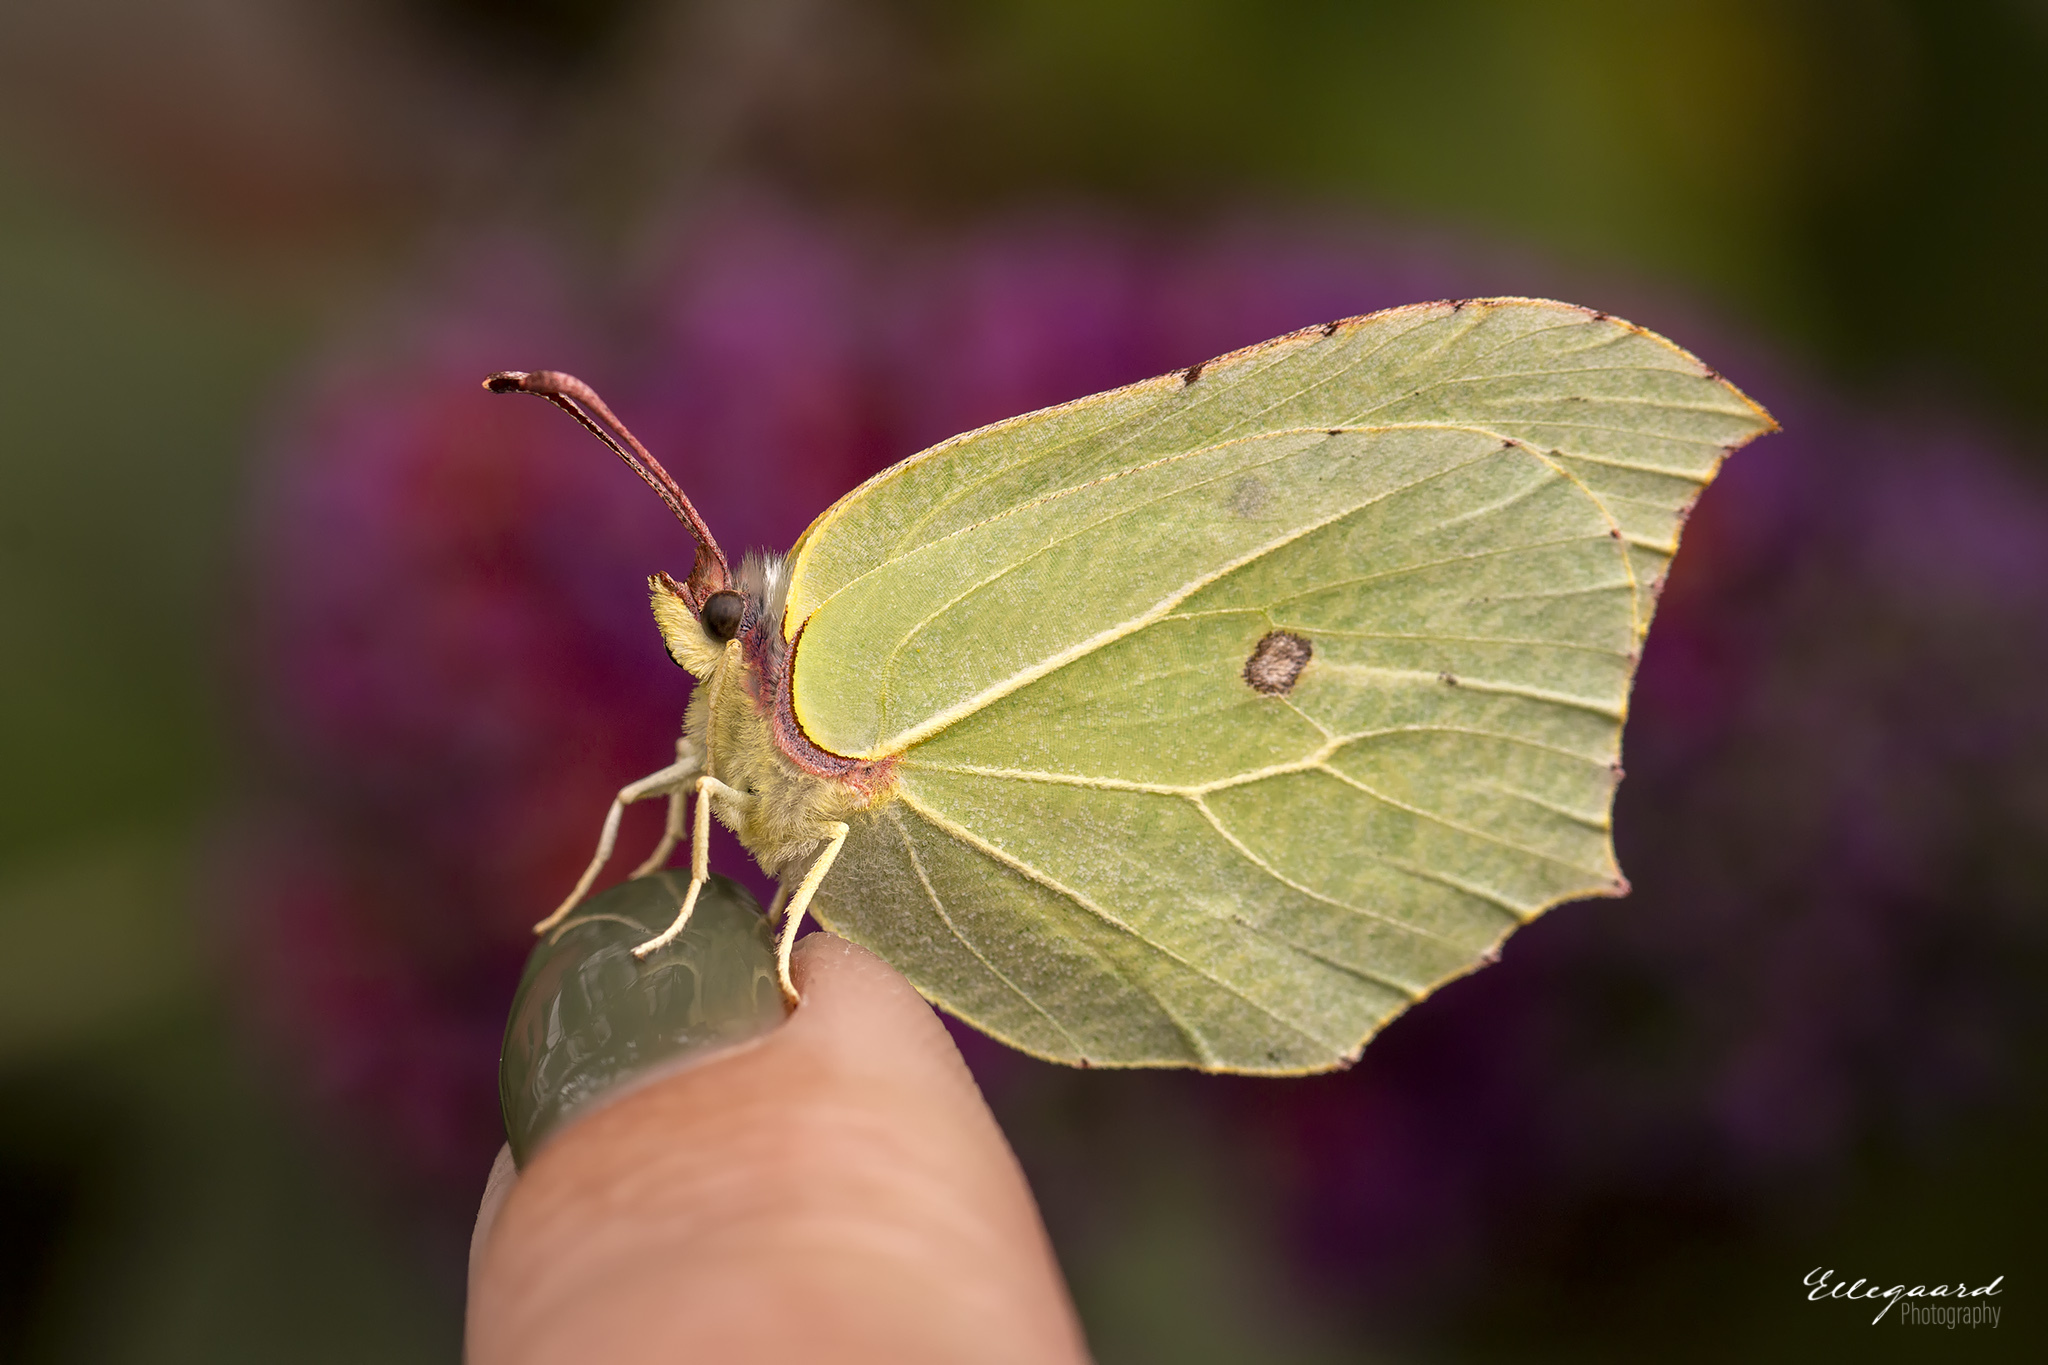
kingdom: Animalia
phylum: Arthropoda
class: Insecta
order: Lepidoptera
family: Pieridae
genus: Gonepteryx
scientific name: Gonepteryx rhamni
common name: Brimstone
